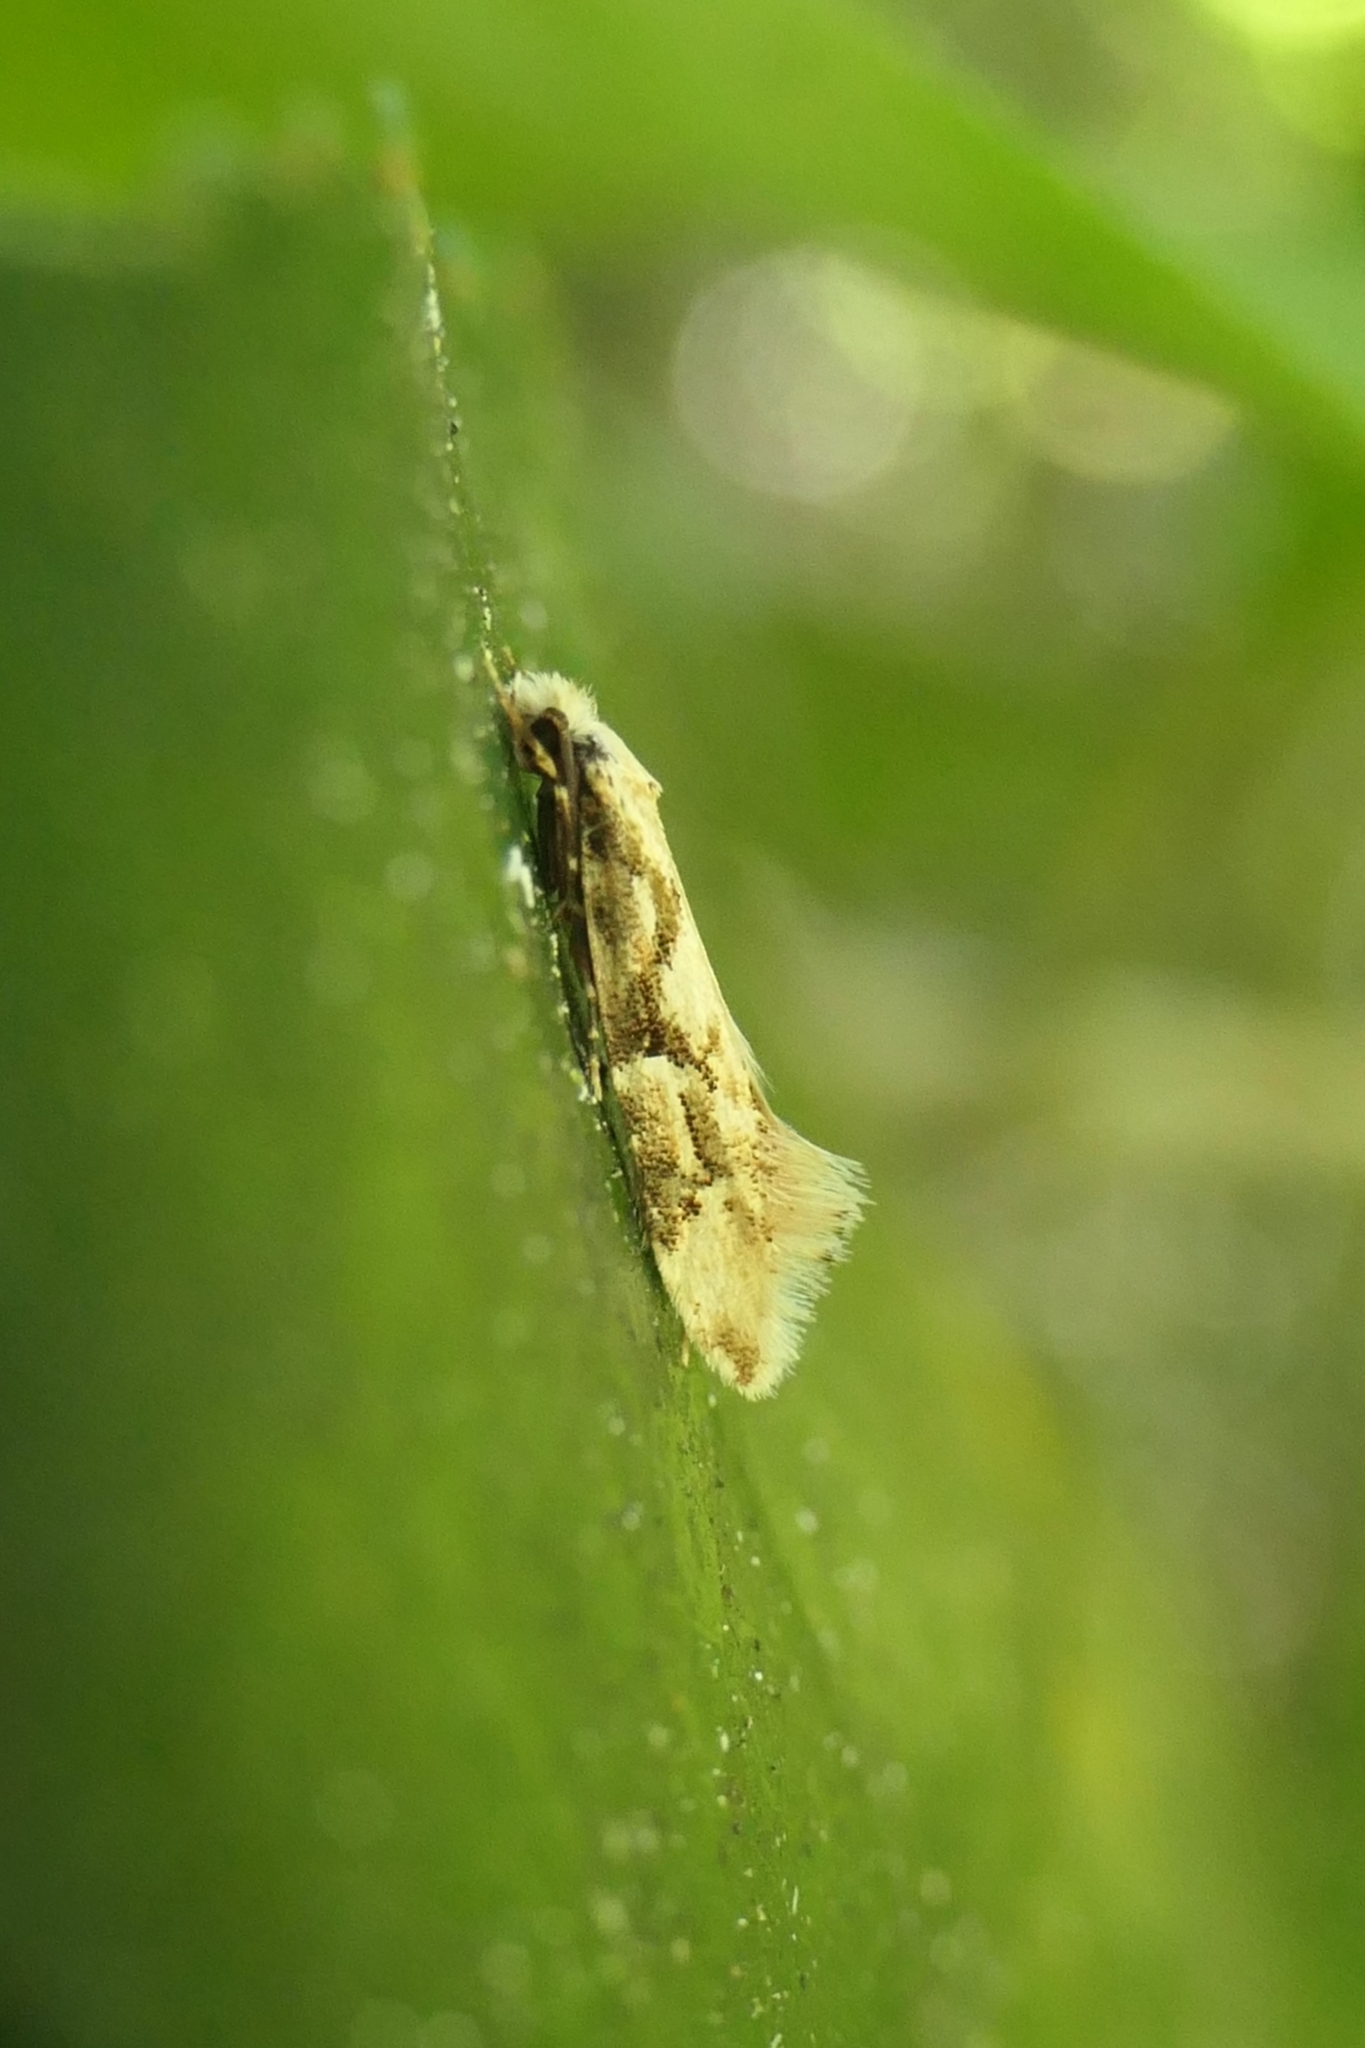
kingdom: Animalia
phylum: Arthropoda
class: Insecta
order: Lepidoptera
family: Tineidae
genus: Crypsitricha
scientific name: Crypsitricha mesotypa
